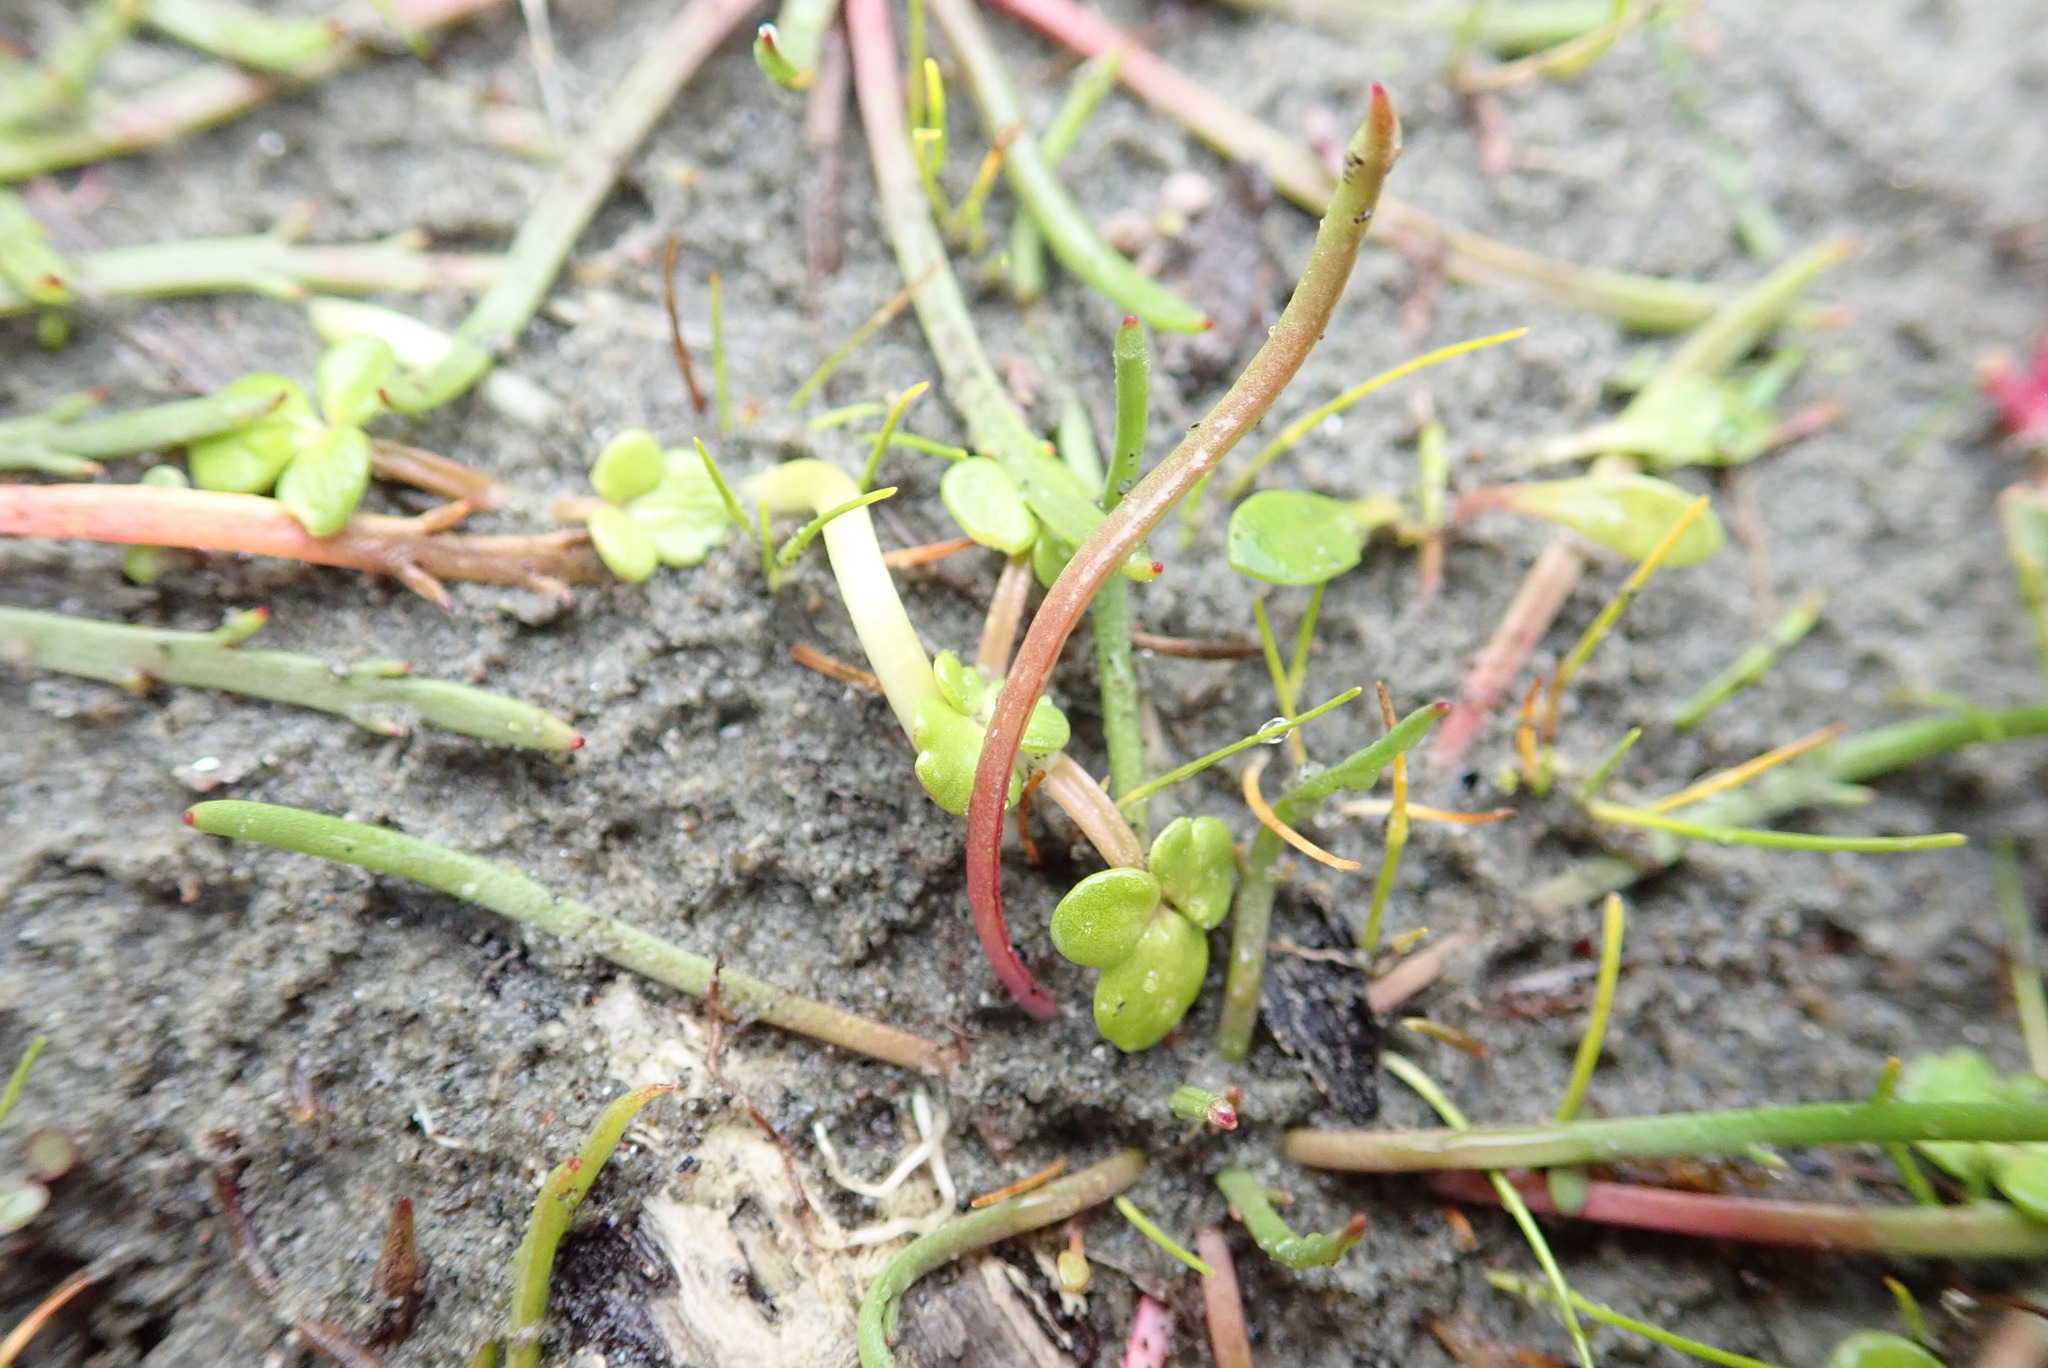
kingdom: Plantae
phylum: Tracheophyta
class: Magnoliopsida
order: Ranunculales
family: Ranunculaceae
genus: Ranunculus
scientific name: Ranunculus acaulis
